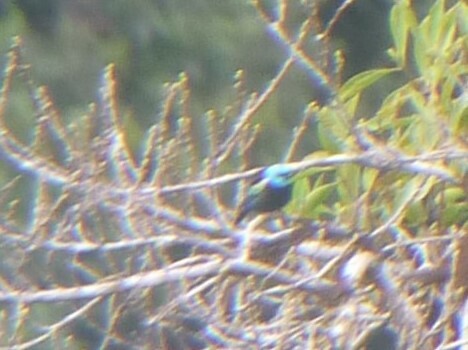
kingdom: Animalia
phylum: Chordata
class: Aves
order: Passeriformes
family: Thraupidae
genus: Stilpnia
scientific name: Stilpnia cyanicollis
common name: Blue-necked tanager
